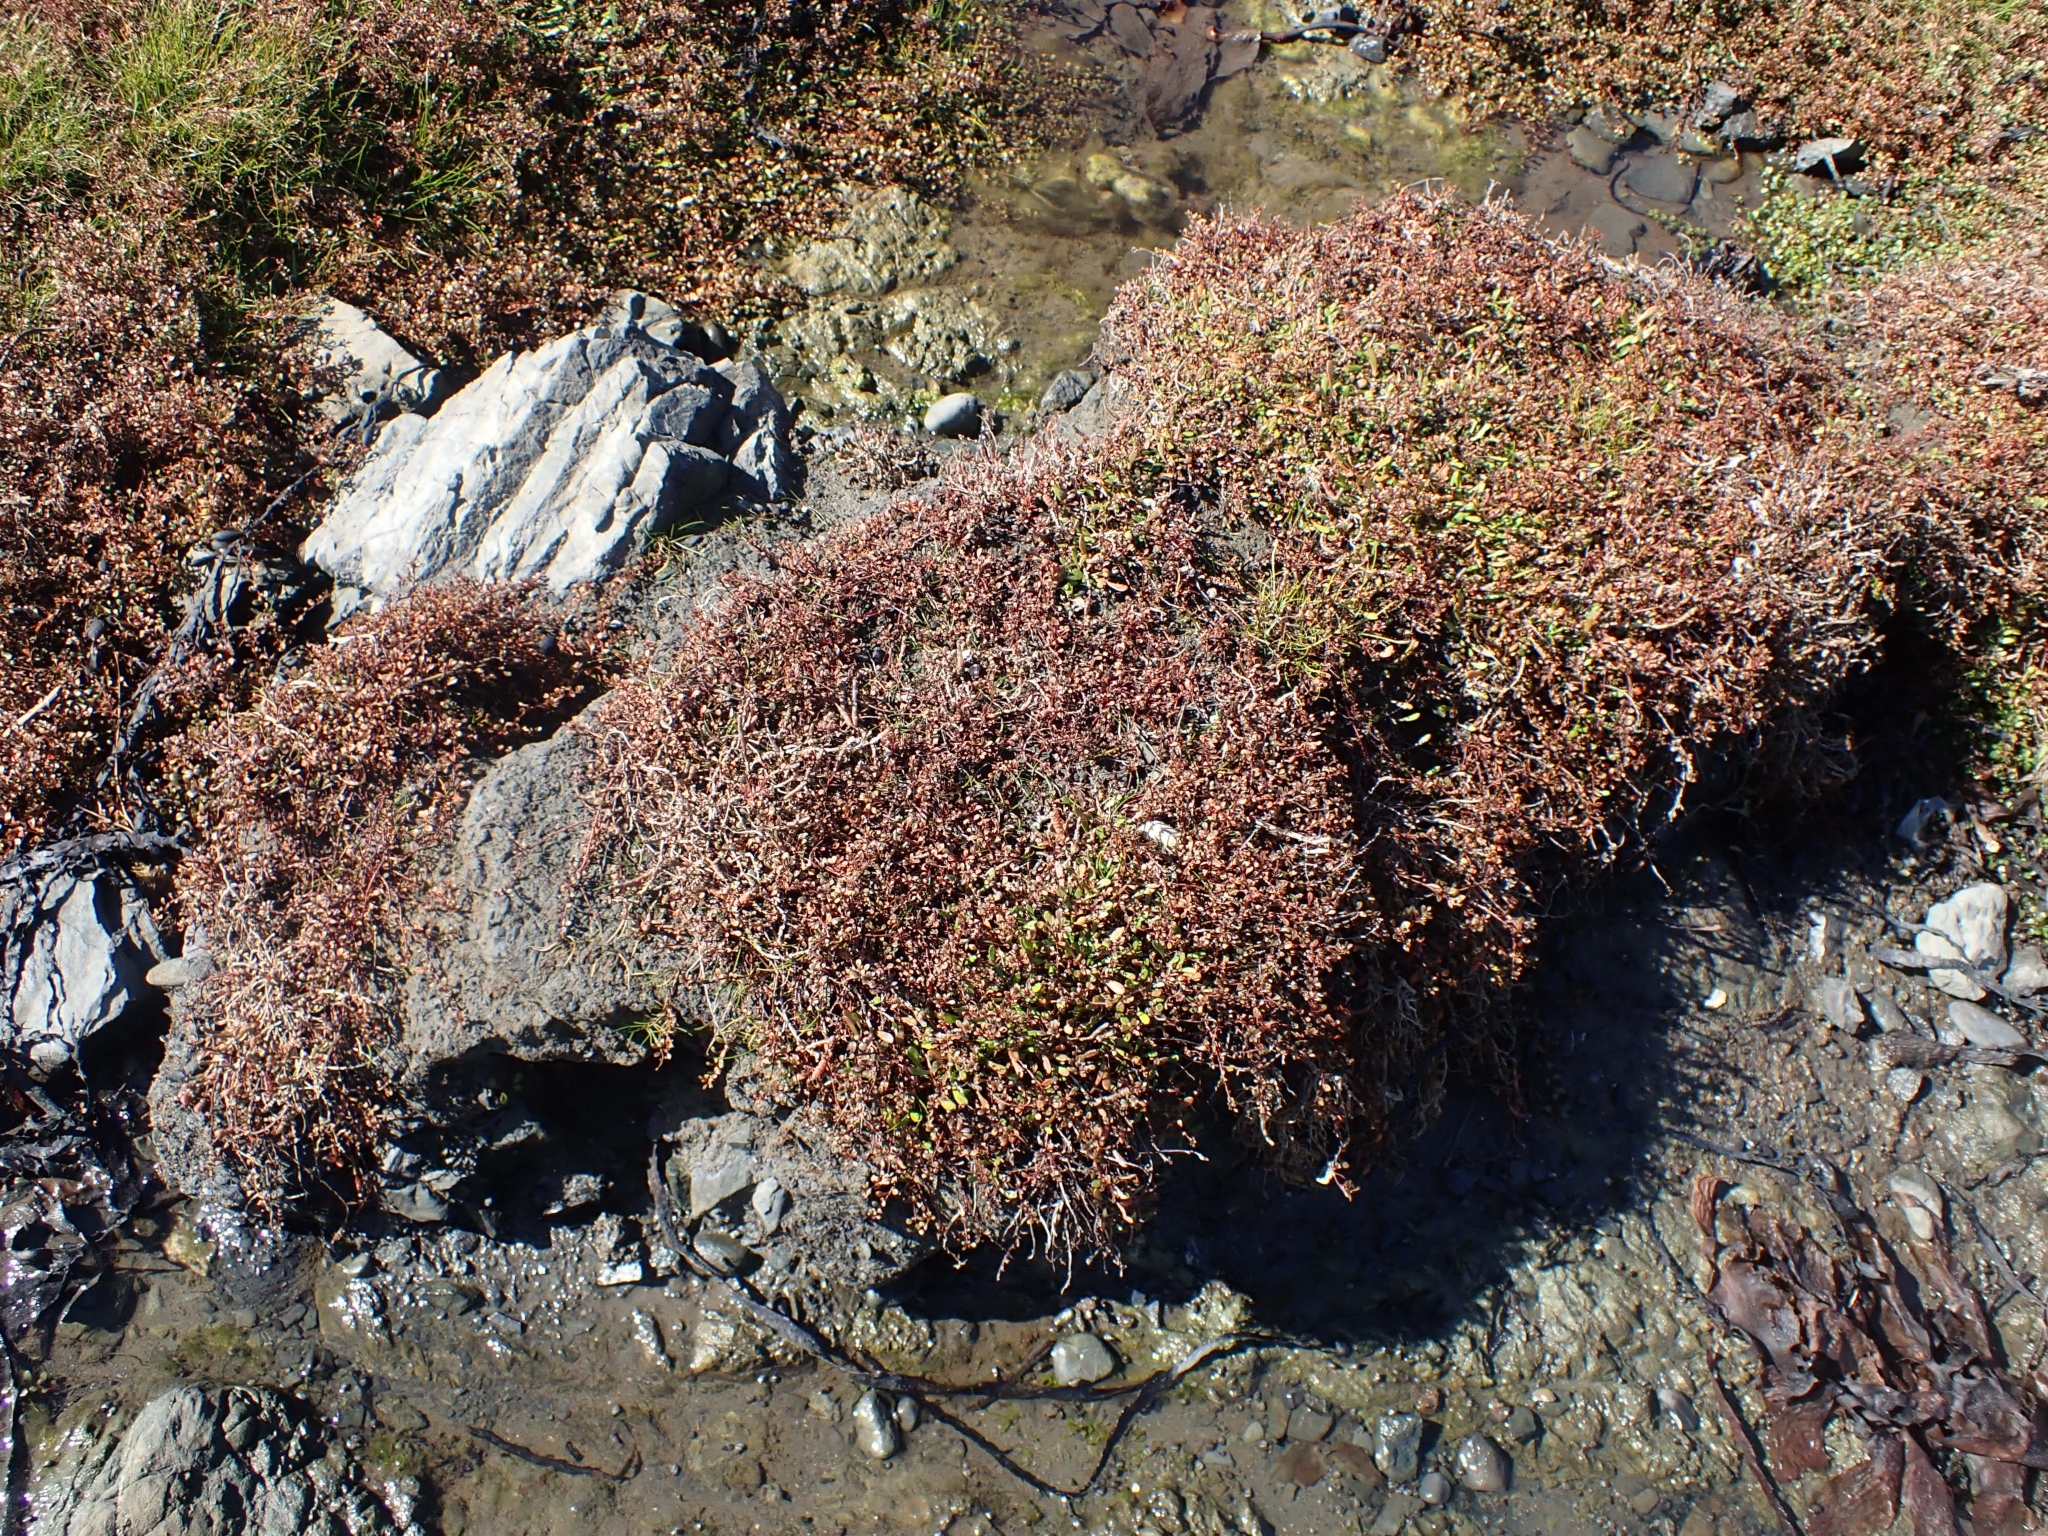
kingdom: Plantae
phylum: Tracheophyta
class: Magnoliopsida
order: Ericales
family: Primulaceae
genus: Samolus
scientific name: Samolus repens
